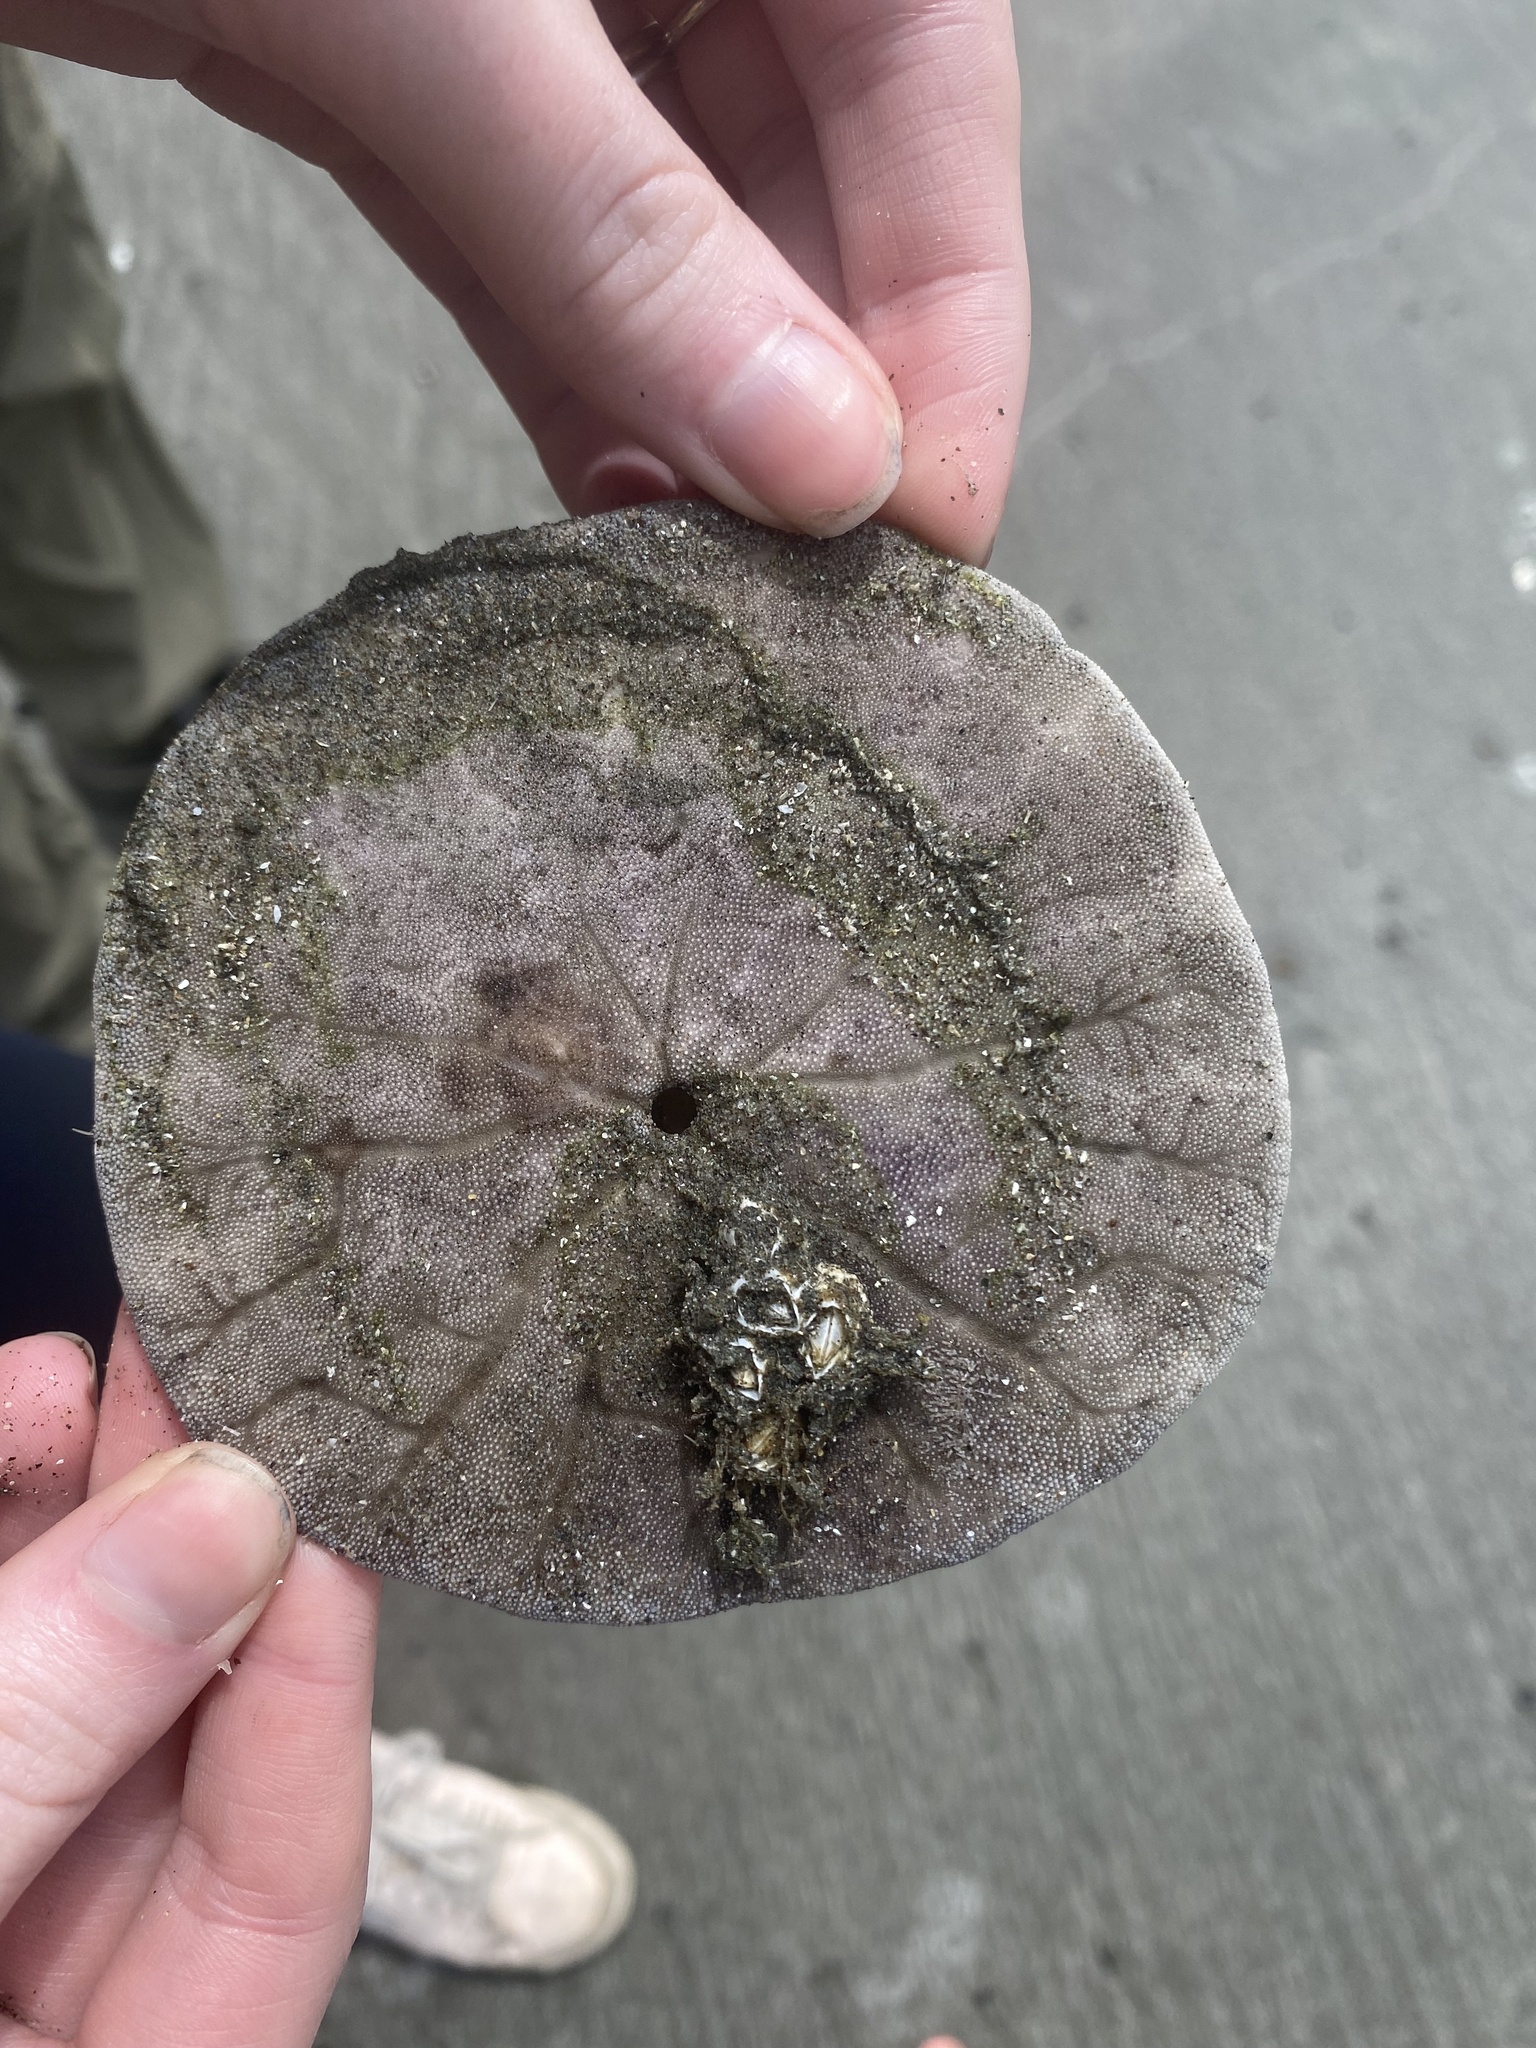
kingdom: Animalia
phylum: Echinodermata
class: Echinoidea
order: Echinolampadacea
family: Dendrasteridae
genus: Dendraster
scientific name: Dendraster excentricus
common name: Eccentric sand dollar sea urchin
